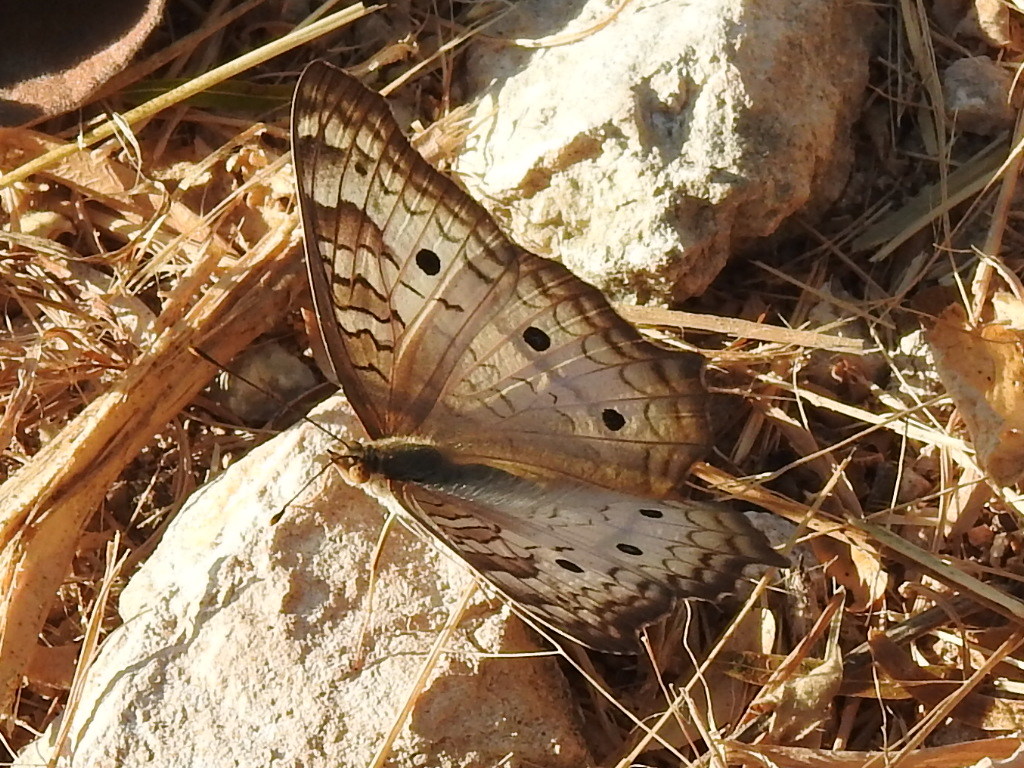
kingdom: Animalia
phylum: Arthropoda
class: Insecta
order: Lepidoptera
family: Nymphalidae
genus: Anartia
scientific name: Anartia jatrophae
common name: White peacock
